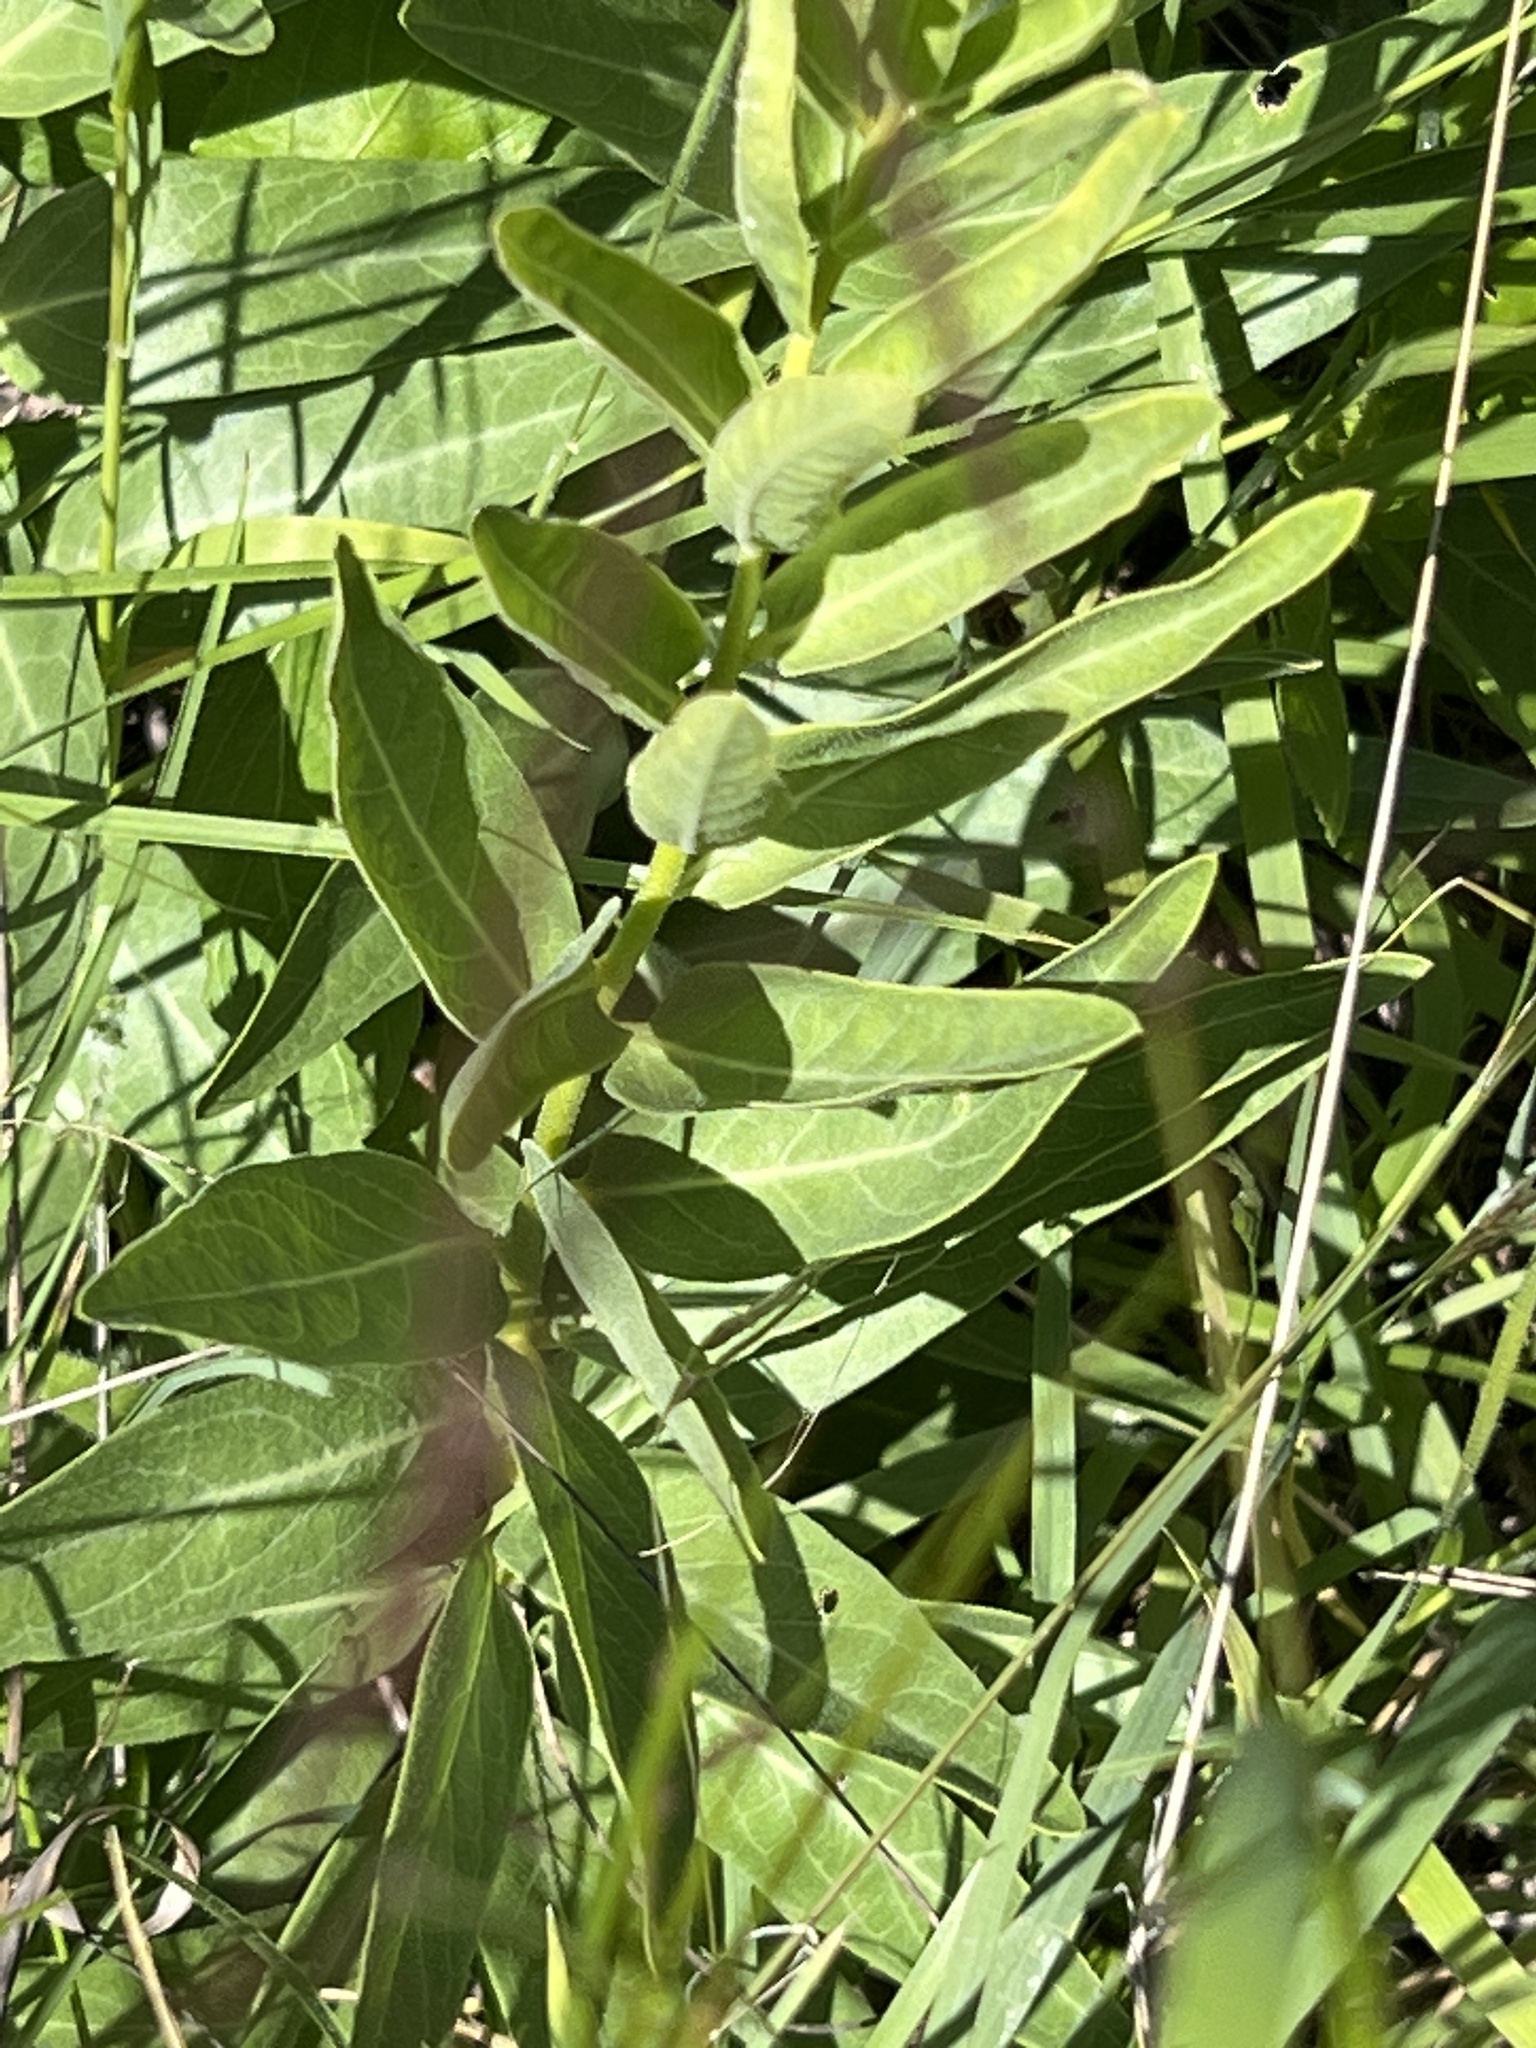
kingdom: Plantae
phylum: Tracheophyta
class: Magnoliopsida
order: Gentianales
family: Apocynaceae
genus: Asclepias
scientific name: Asclepias asperula
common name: Antelope horns
